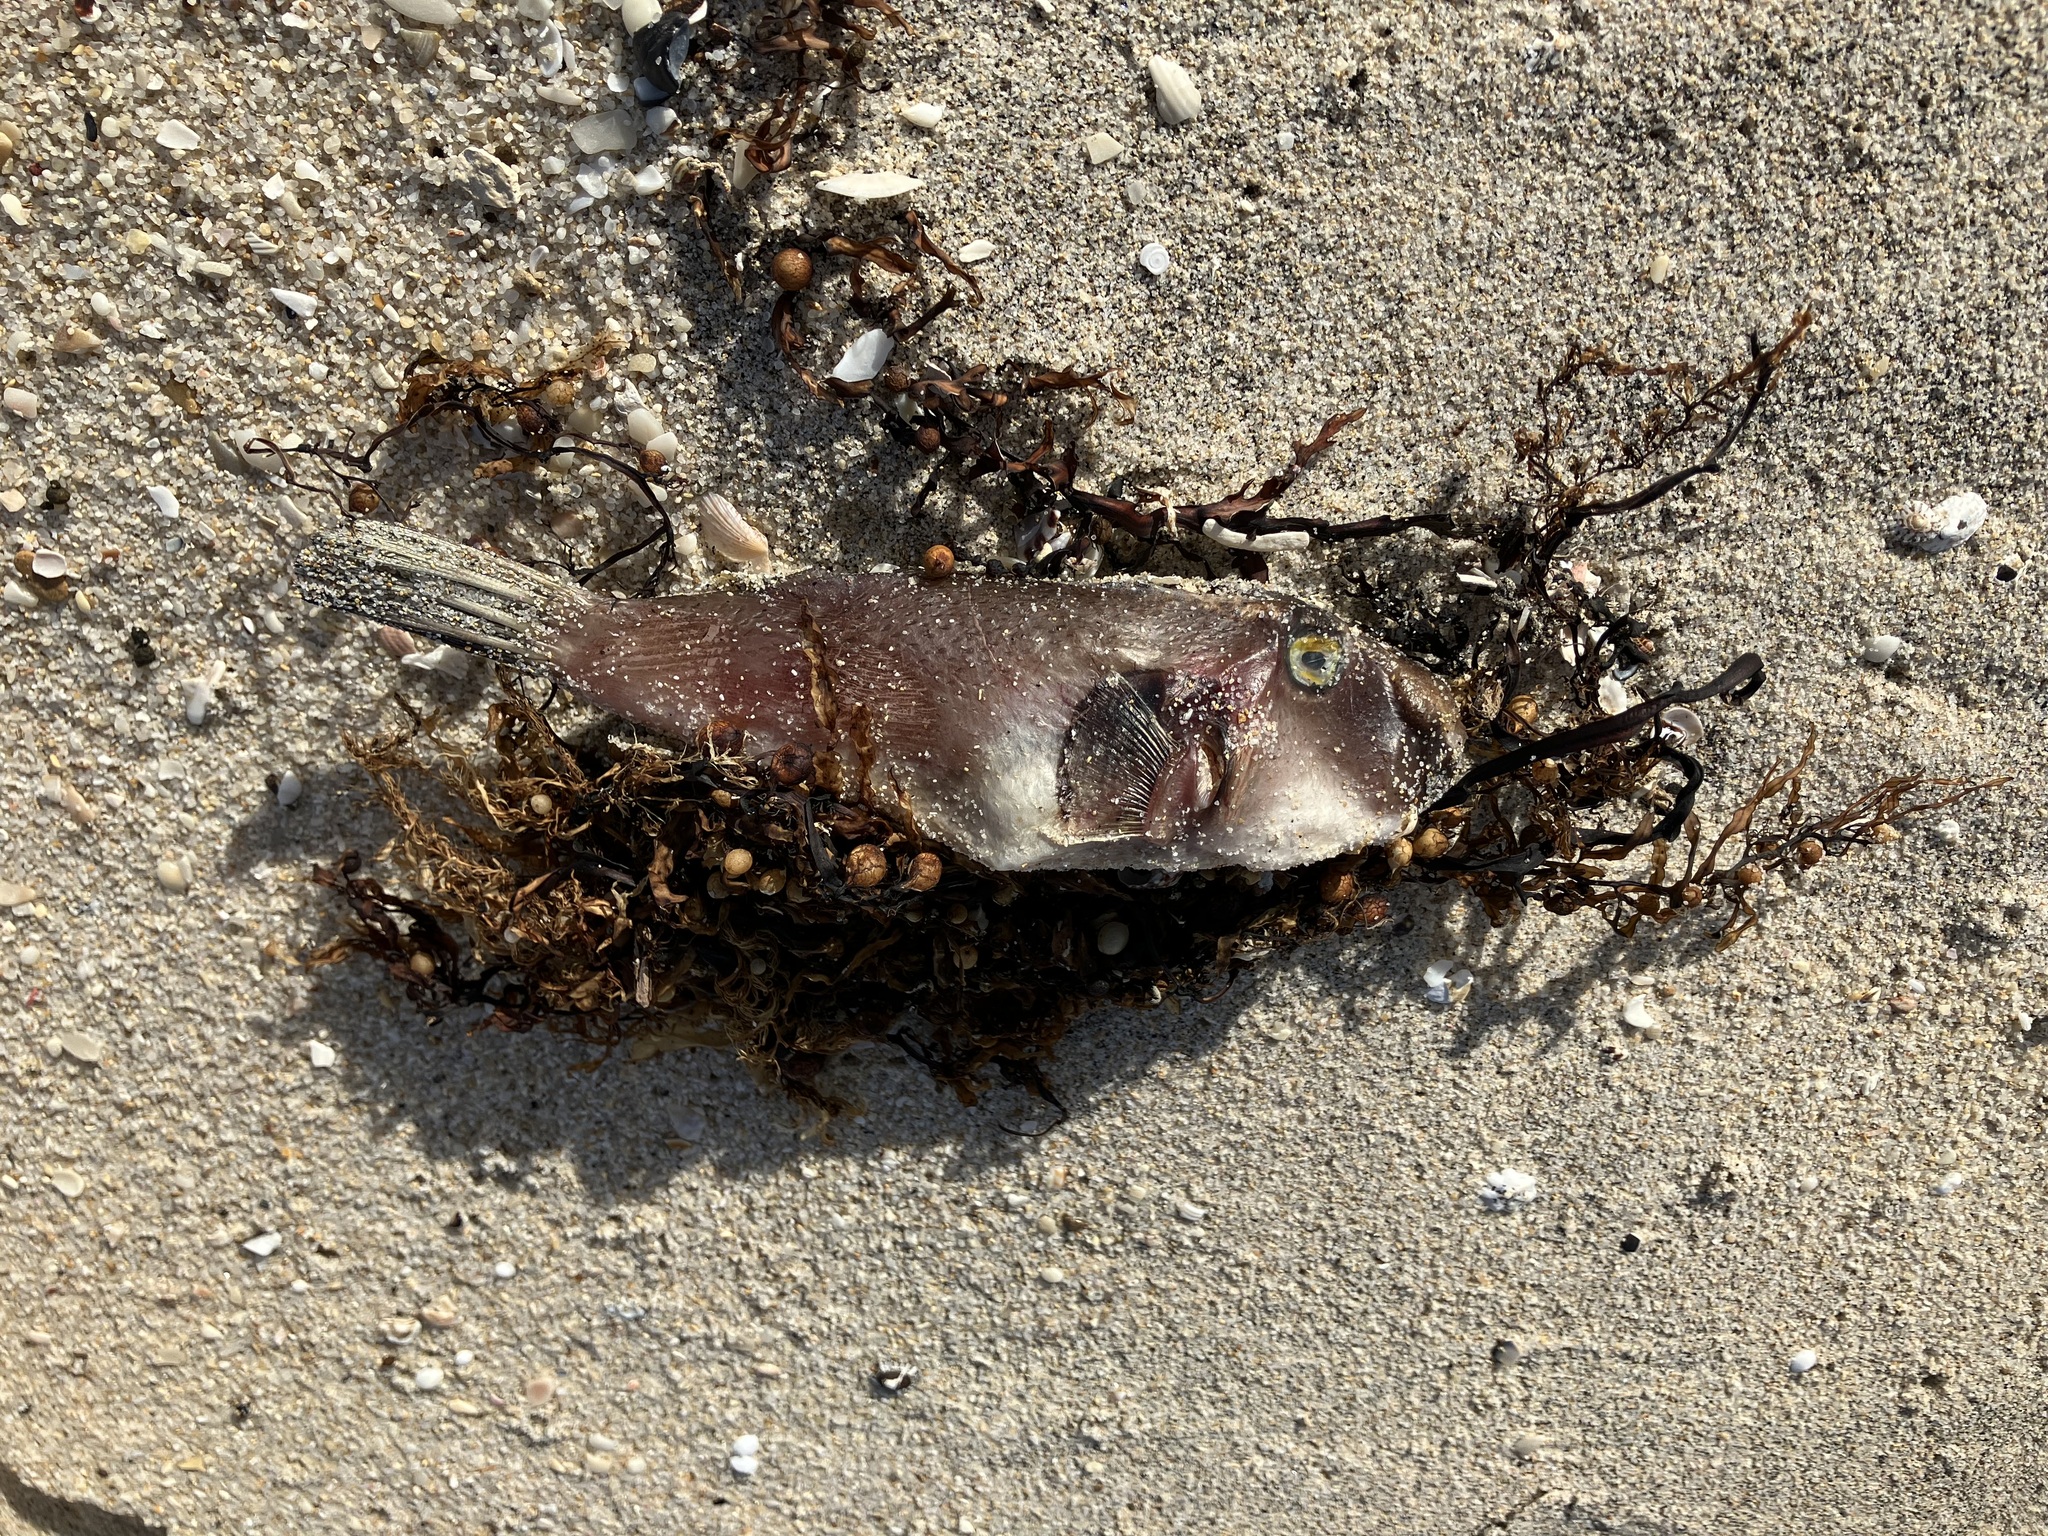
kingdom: Animalia
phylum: Chordata
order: Tetraodontiformes
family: Tetraodontidae
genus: Omegophora
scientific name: Omegophora armilla
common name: Ringed pufferfish
